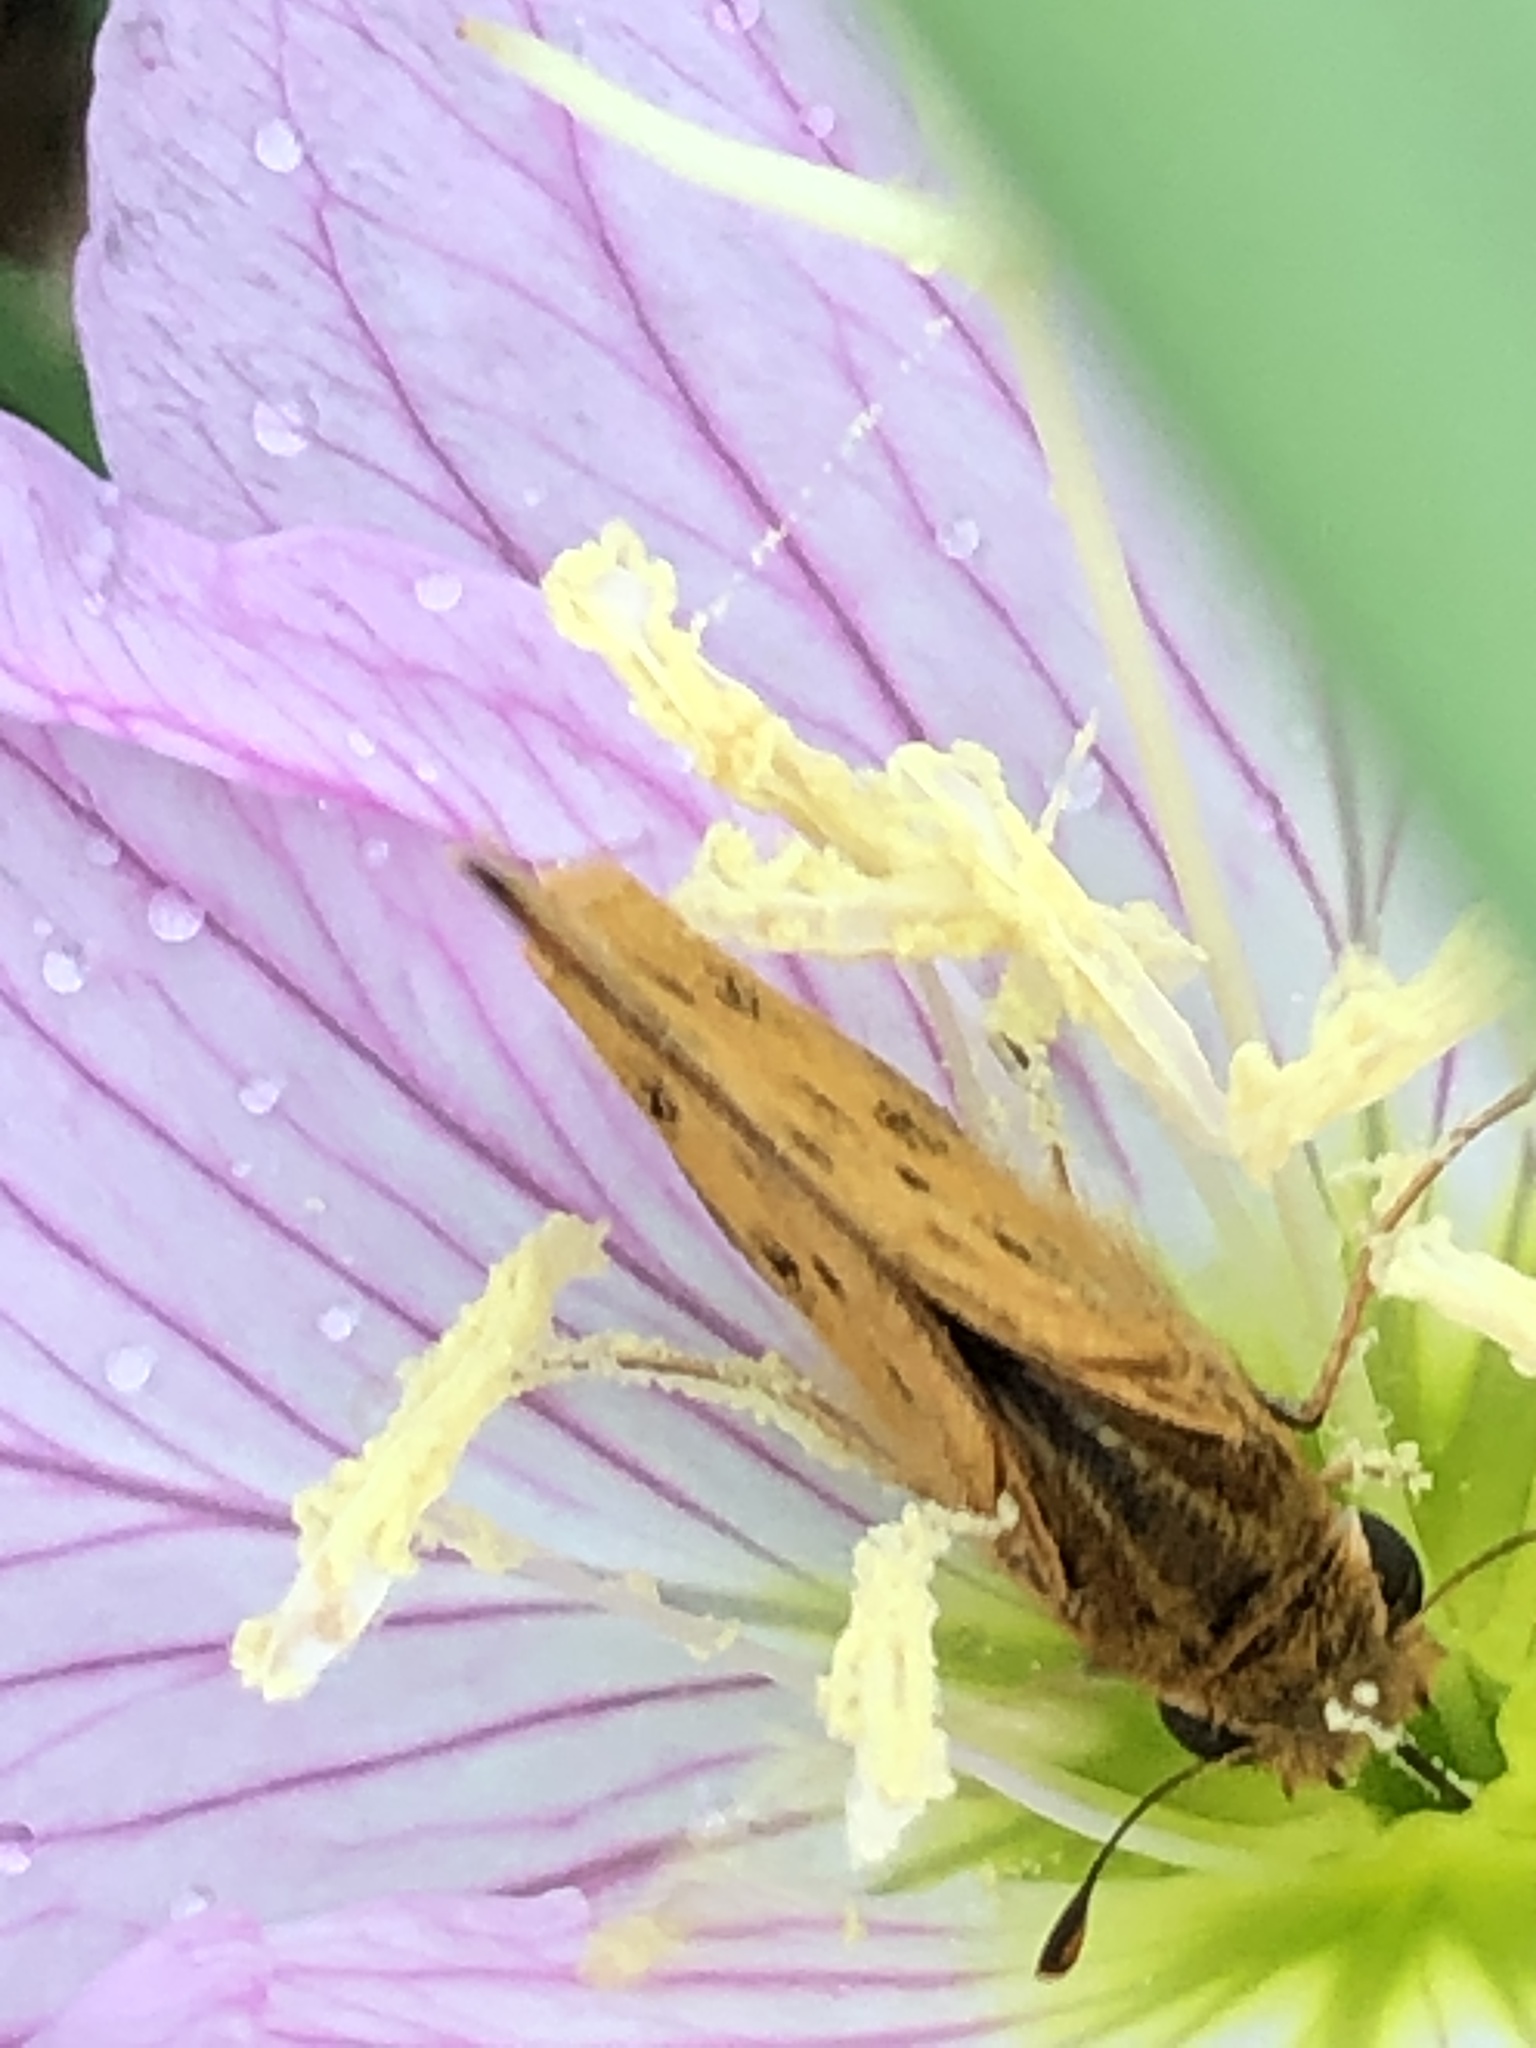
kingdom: Animalia
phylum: Arthropoda
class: Insecta
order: Lepidoptera
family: Hesperiidae
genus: Hylephila
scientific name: Hylephila phyleus
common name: Fiery skipper
